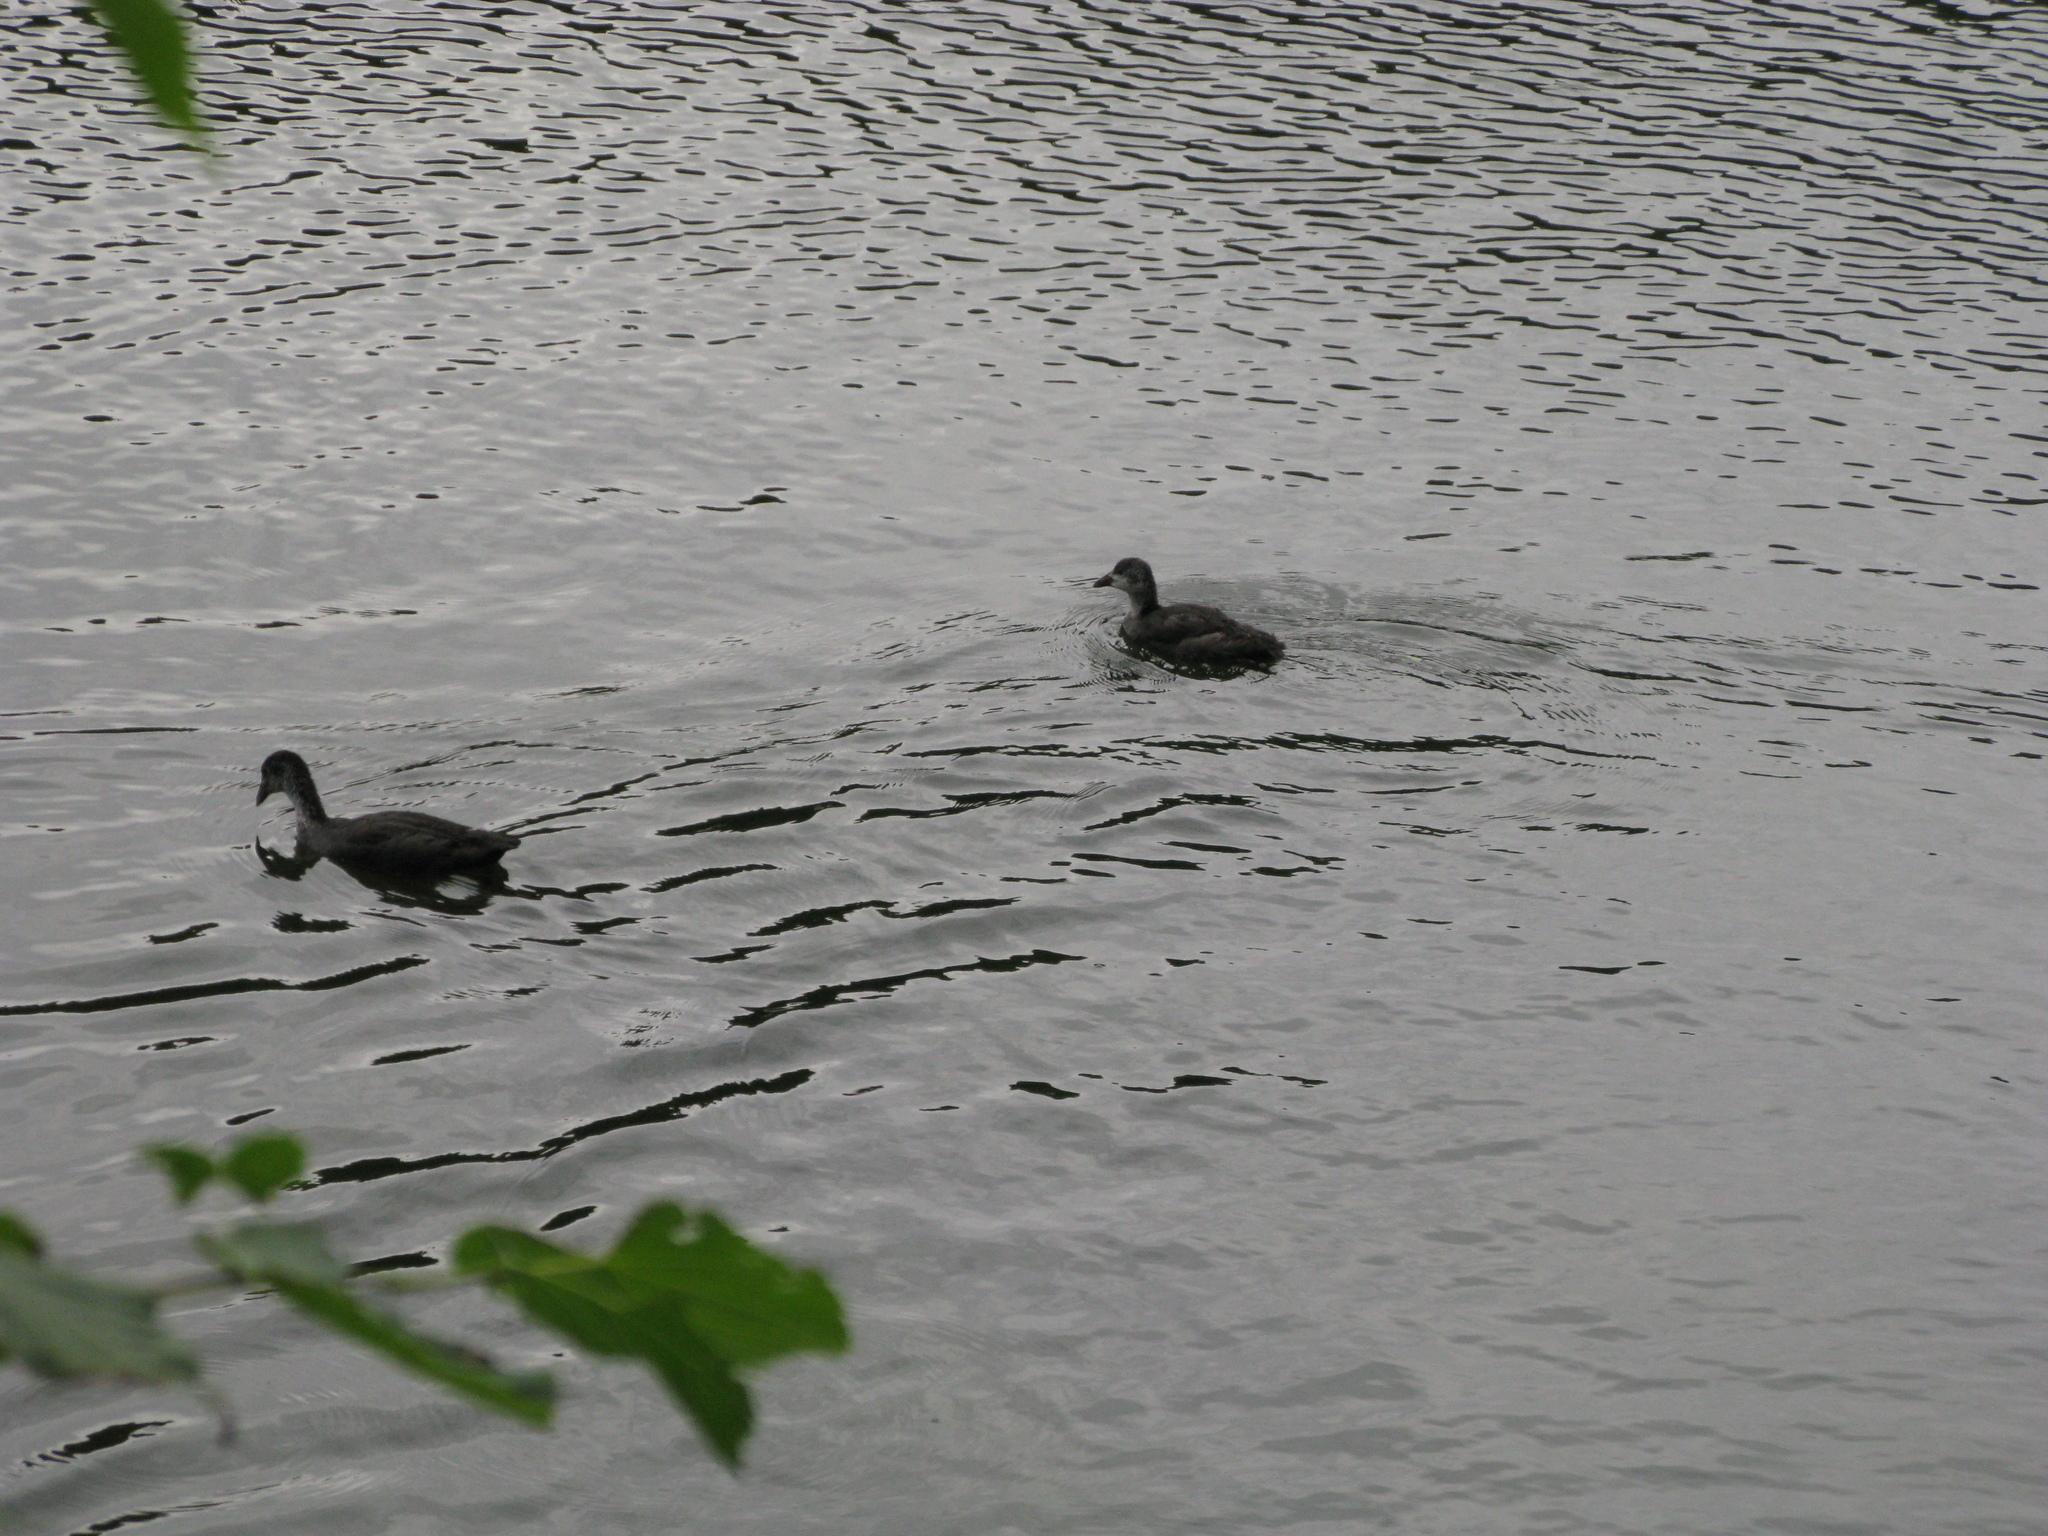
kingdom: Animalia
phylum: Chordata
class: Aves
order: Gruiformes
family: Rallidae
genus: Fulica
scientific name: Fulica atra
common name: Eurasian coot
